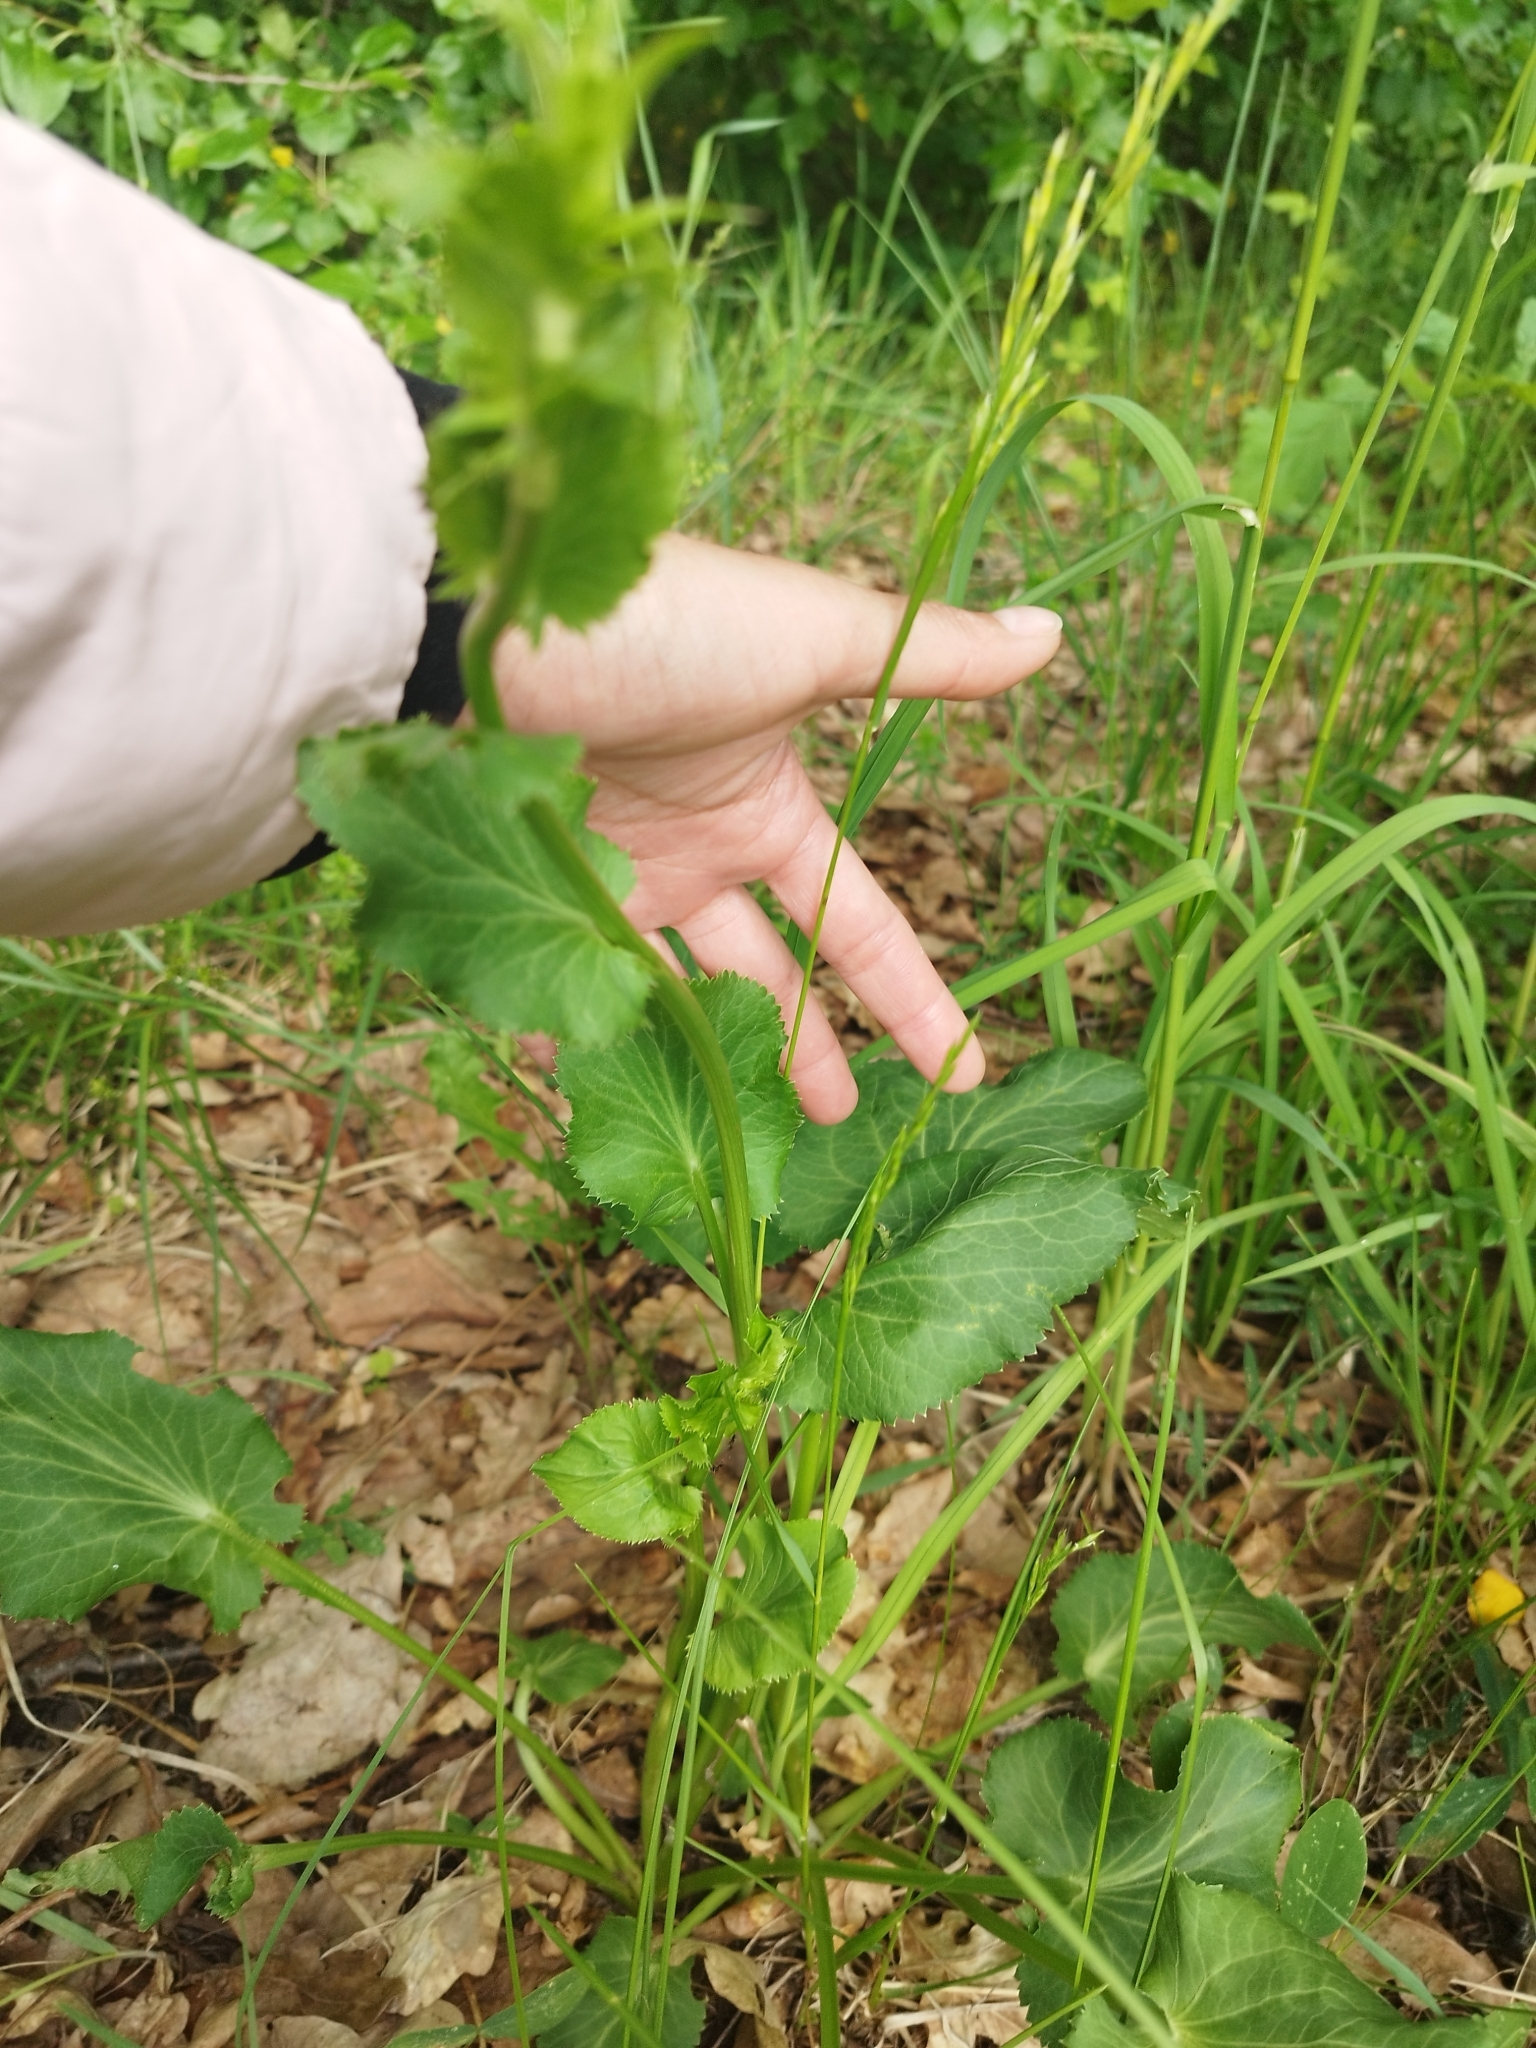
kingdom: Plantae
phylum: Tracheophyta
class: Magnoliopsida
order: Apiales
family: Apiaceae
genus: Eryngium
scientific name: Eryngium planum
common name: Blue eryngo
